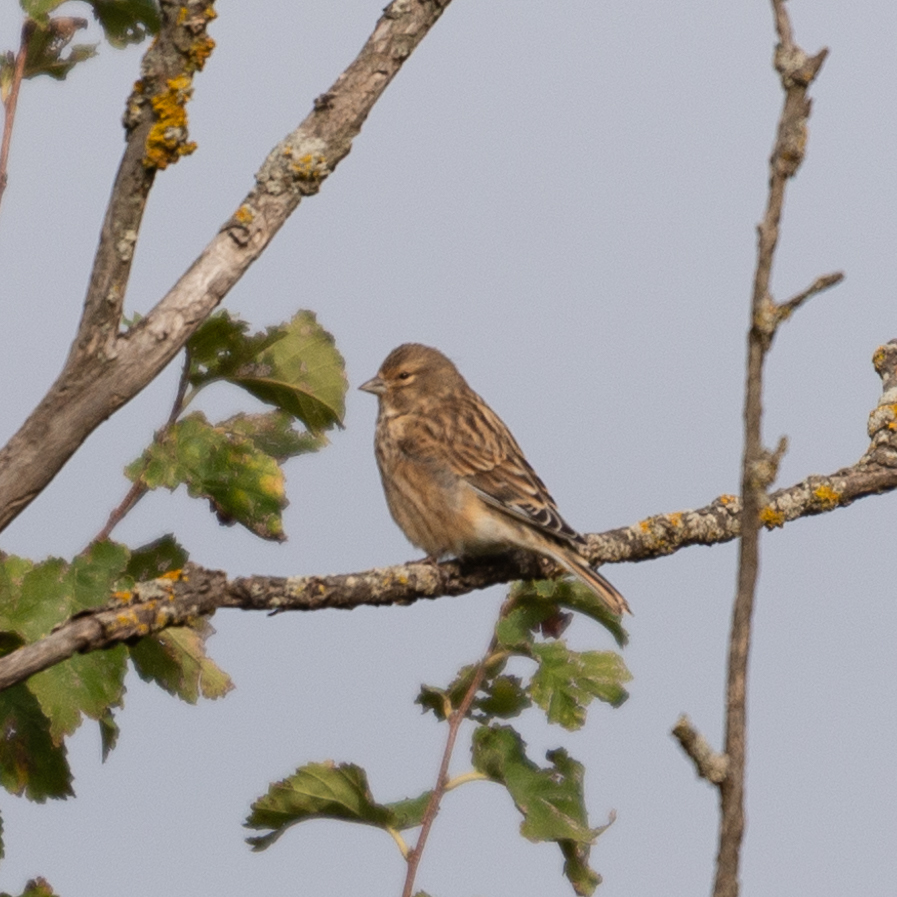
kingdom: Animalia
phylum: Chordata
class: Aves
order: Passeriformes
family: Fringillidae
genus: Linaria
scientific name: Linaria cannabina
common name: Common linnet
